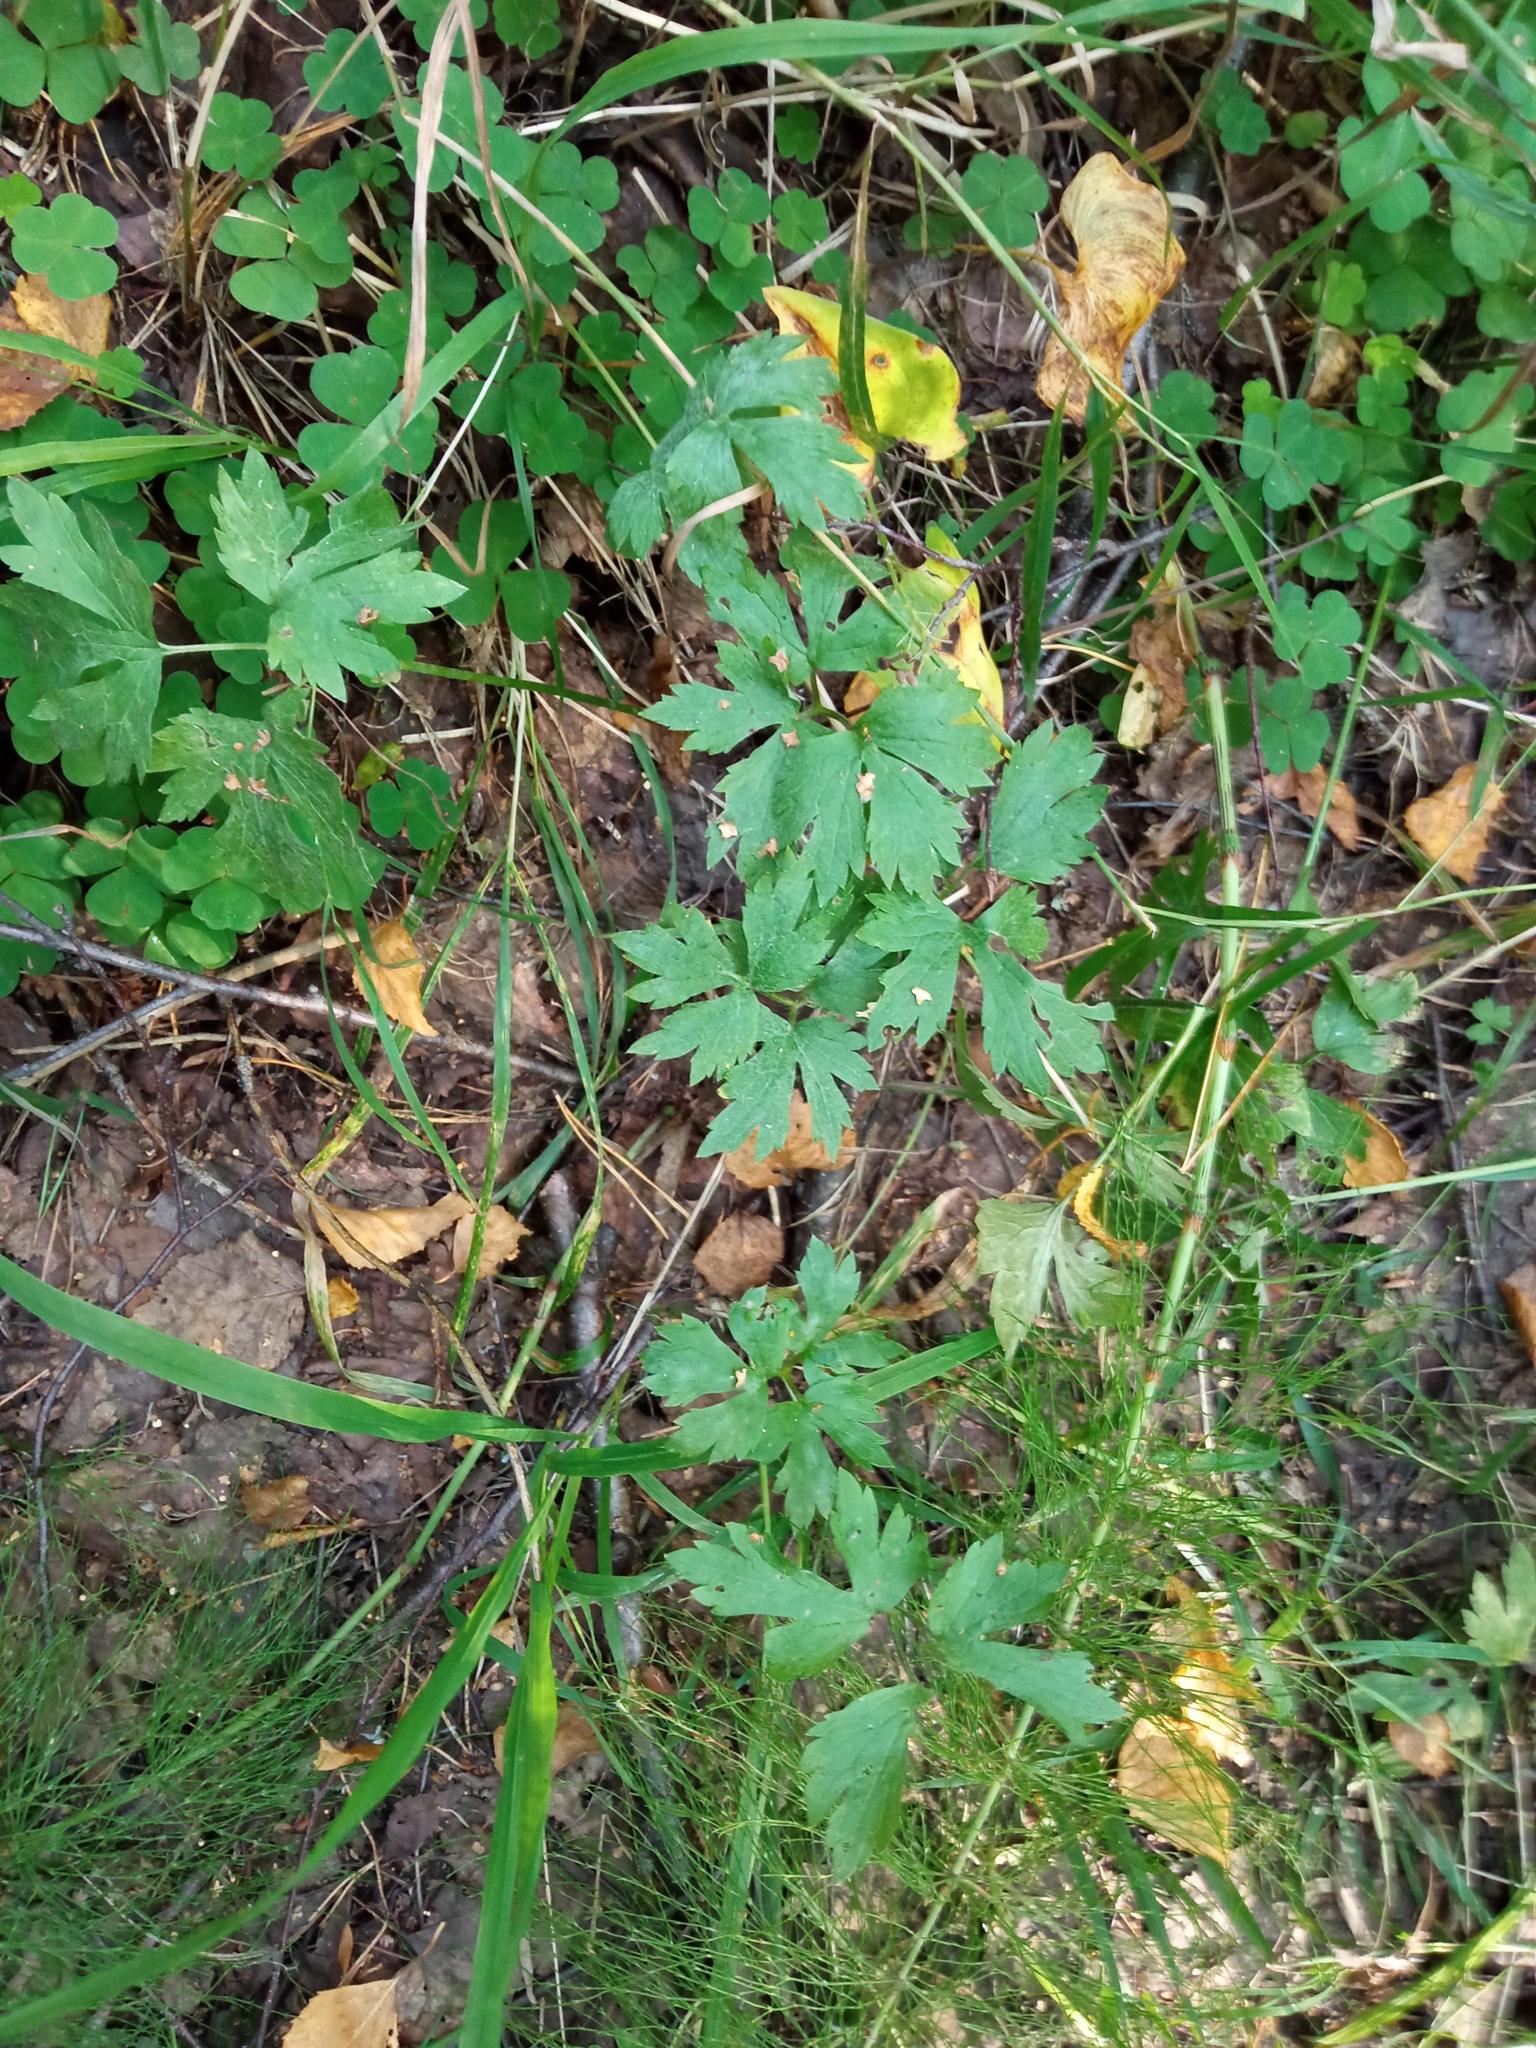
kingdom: Plantae
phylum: Tracheophyta
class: Magnoliopsida
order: Ranunculales
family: Ranunculaceae
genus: Ranunculus
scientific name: Ranunculus repens
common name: Creeping buttercup
